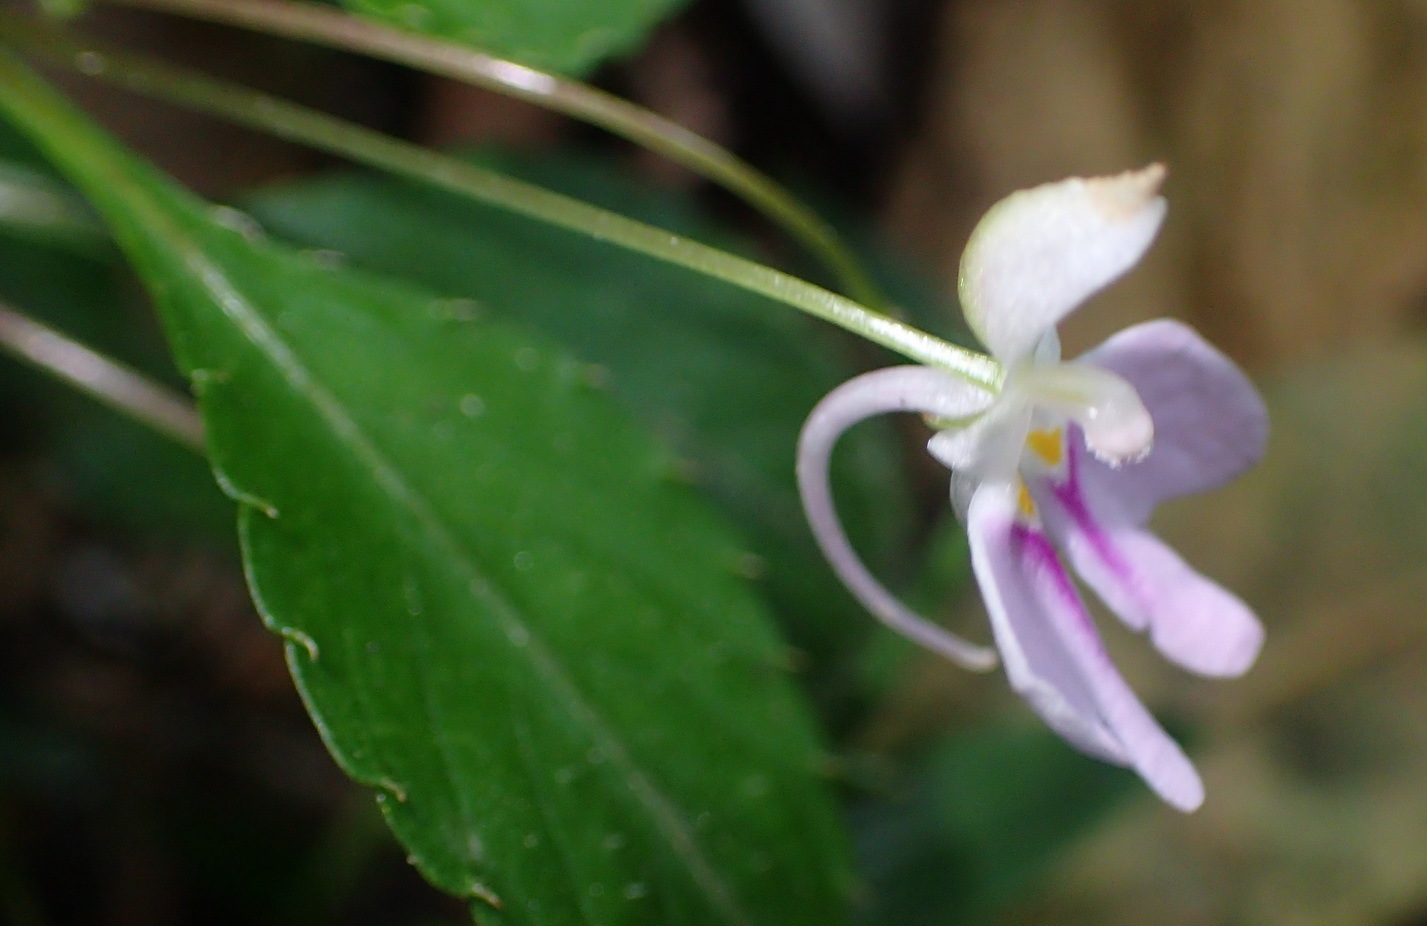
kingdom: Plantae
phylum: Tracheophyta
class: Magnoliopsida
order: Ericales
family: Balsaminaceae
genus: Impatiens
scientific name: Impatiens hochstetteri
